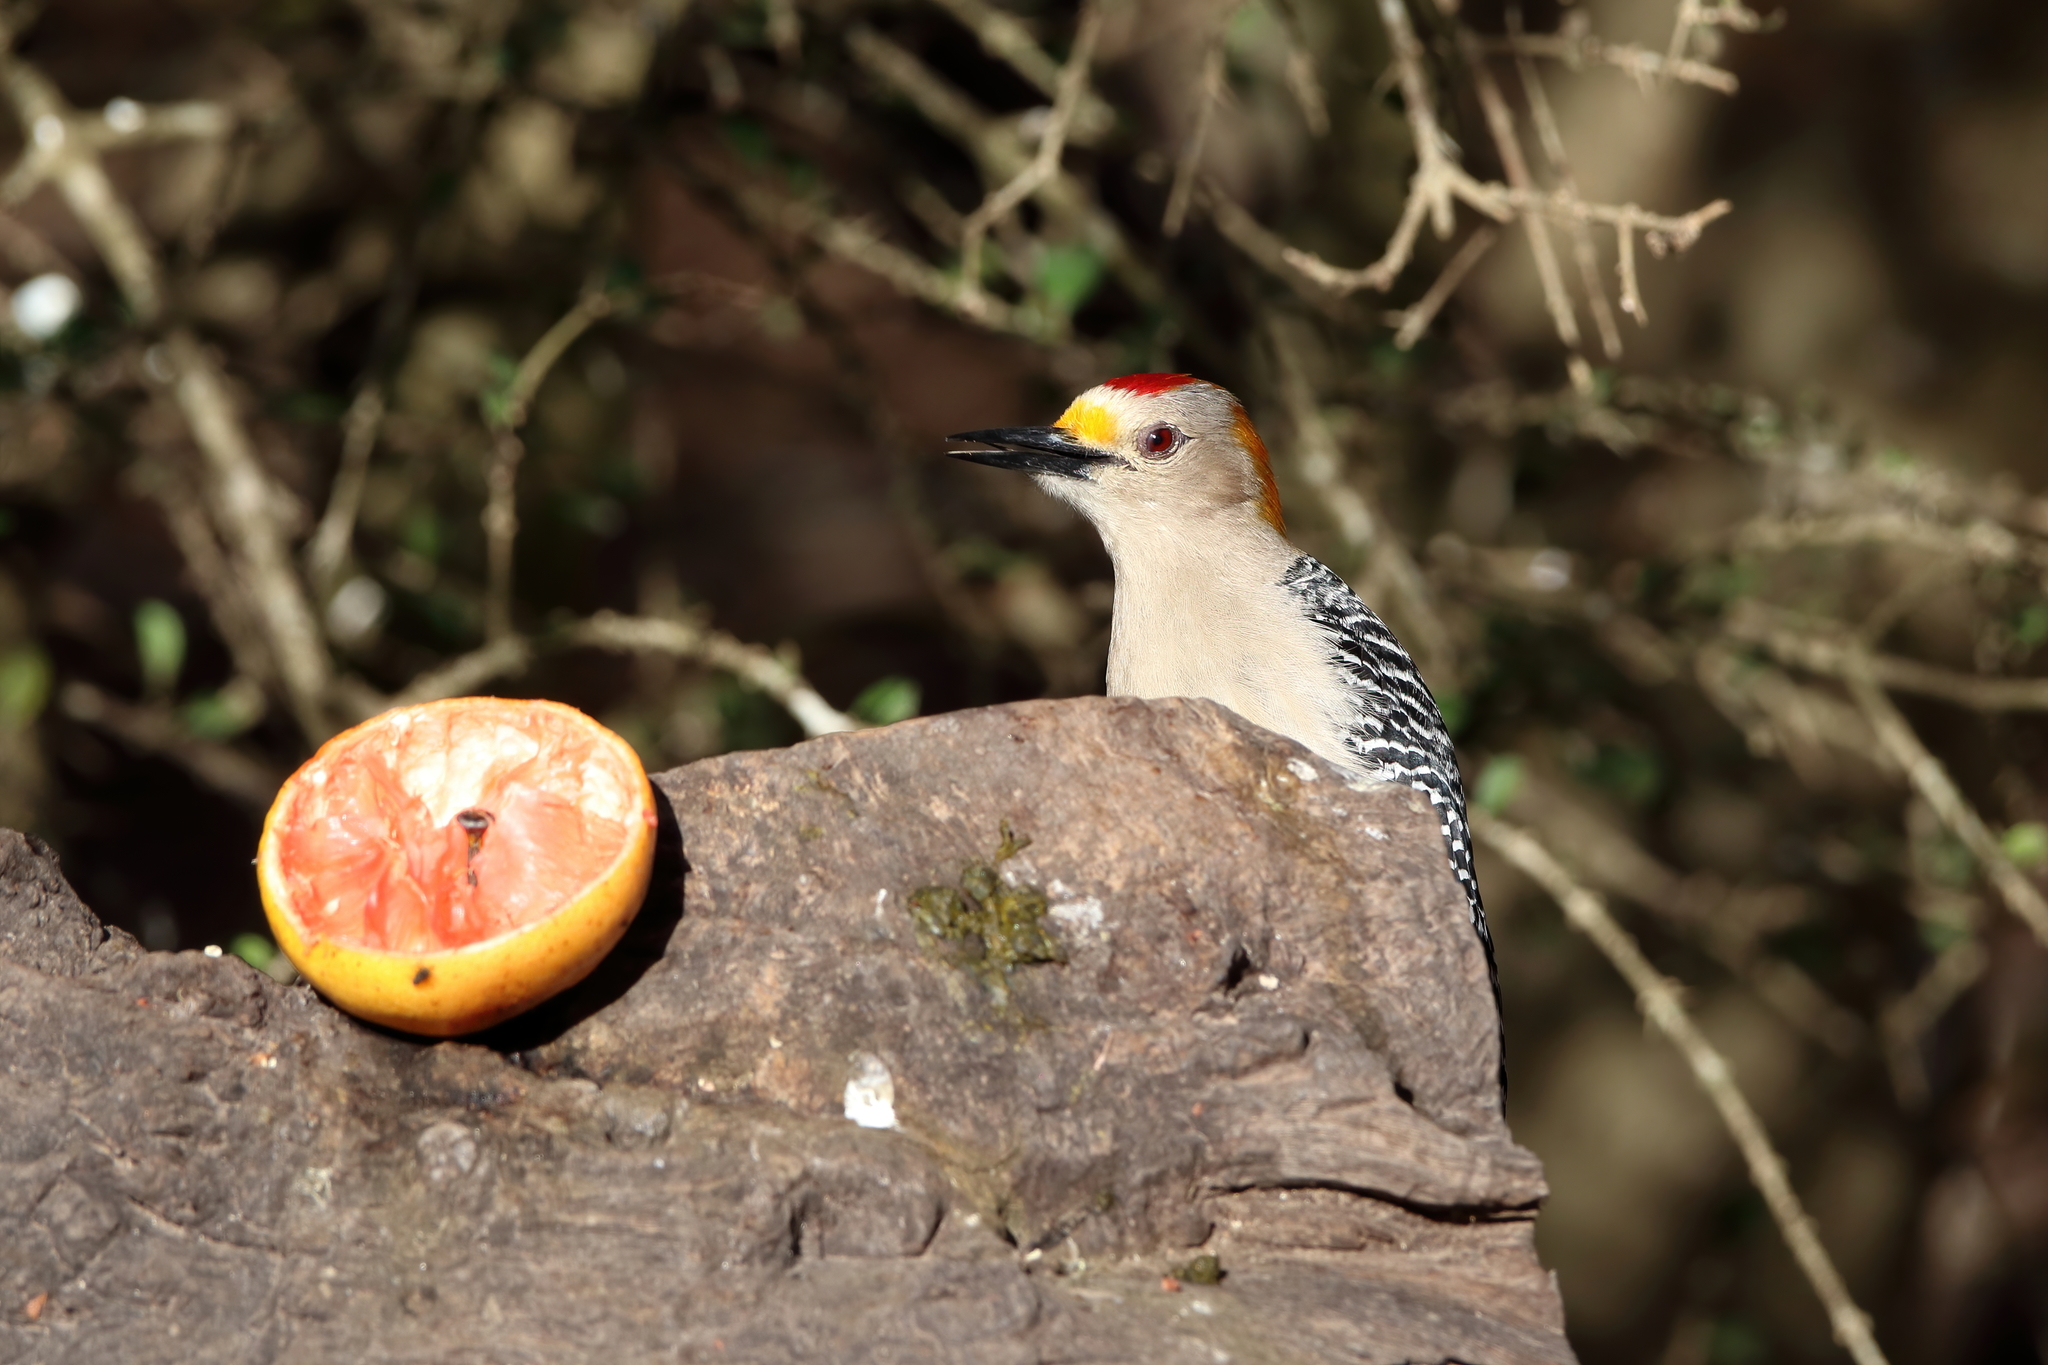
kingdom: Animalia
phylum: Chordata
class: Aves
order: Piciformes
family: Picidae
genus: Melanerpes
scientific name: Melanerpes aurifrons
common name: Golden-fronted woodpecker
